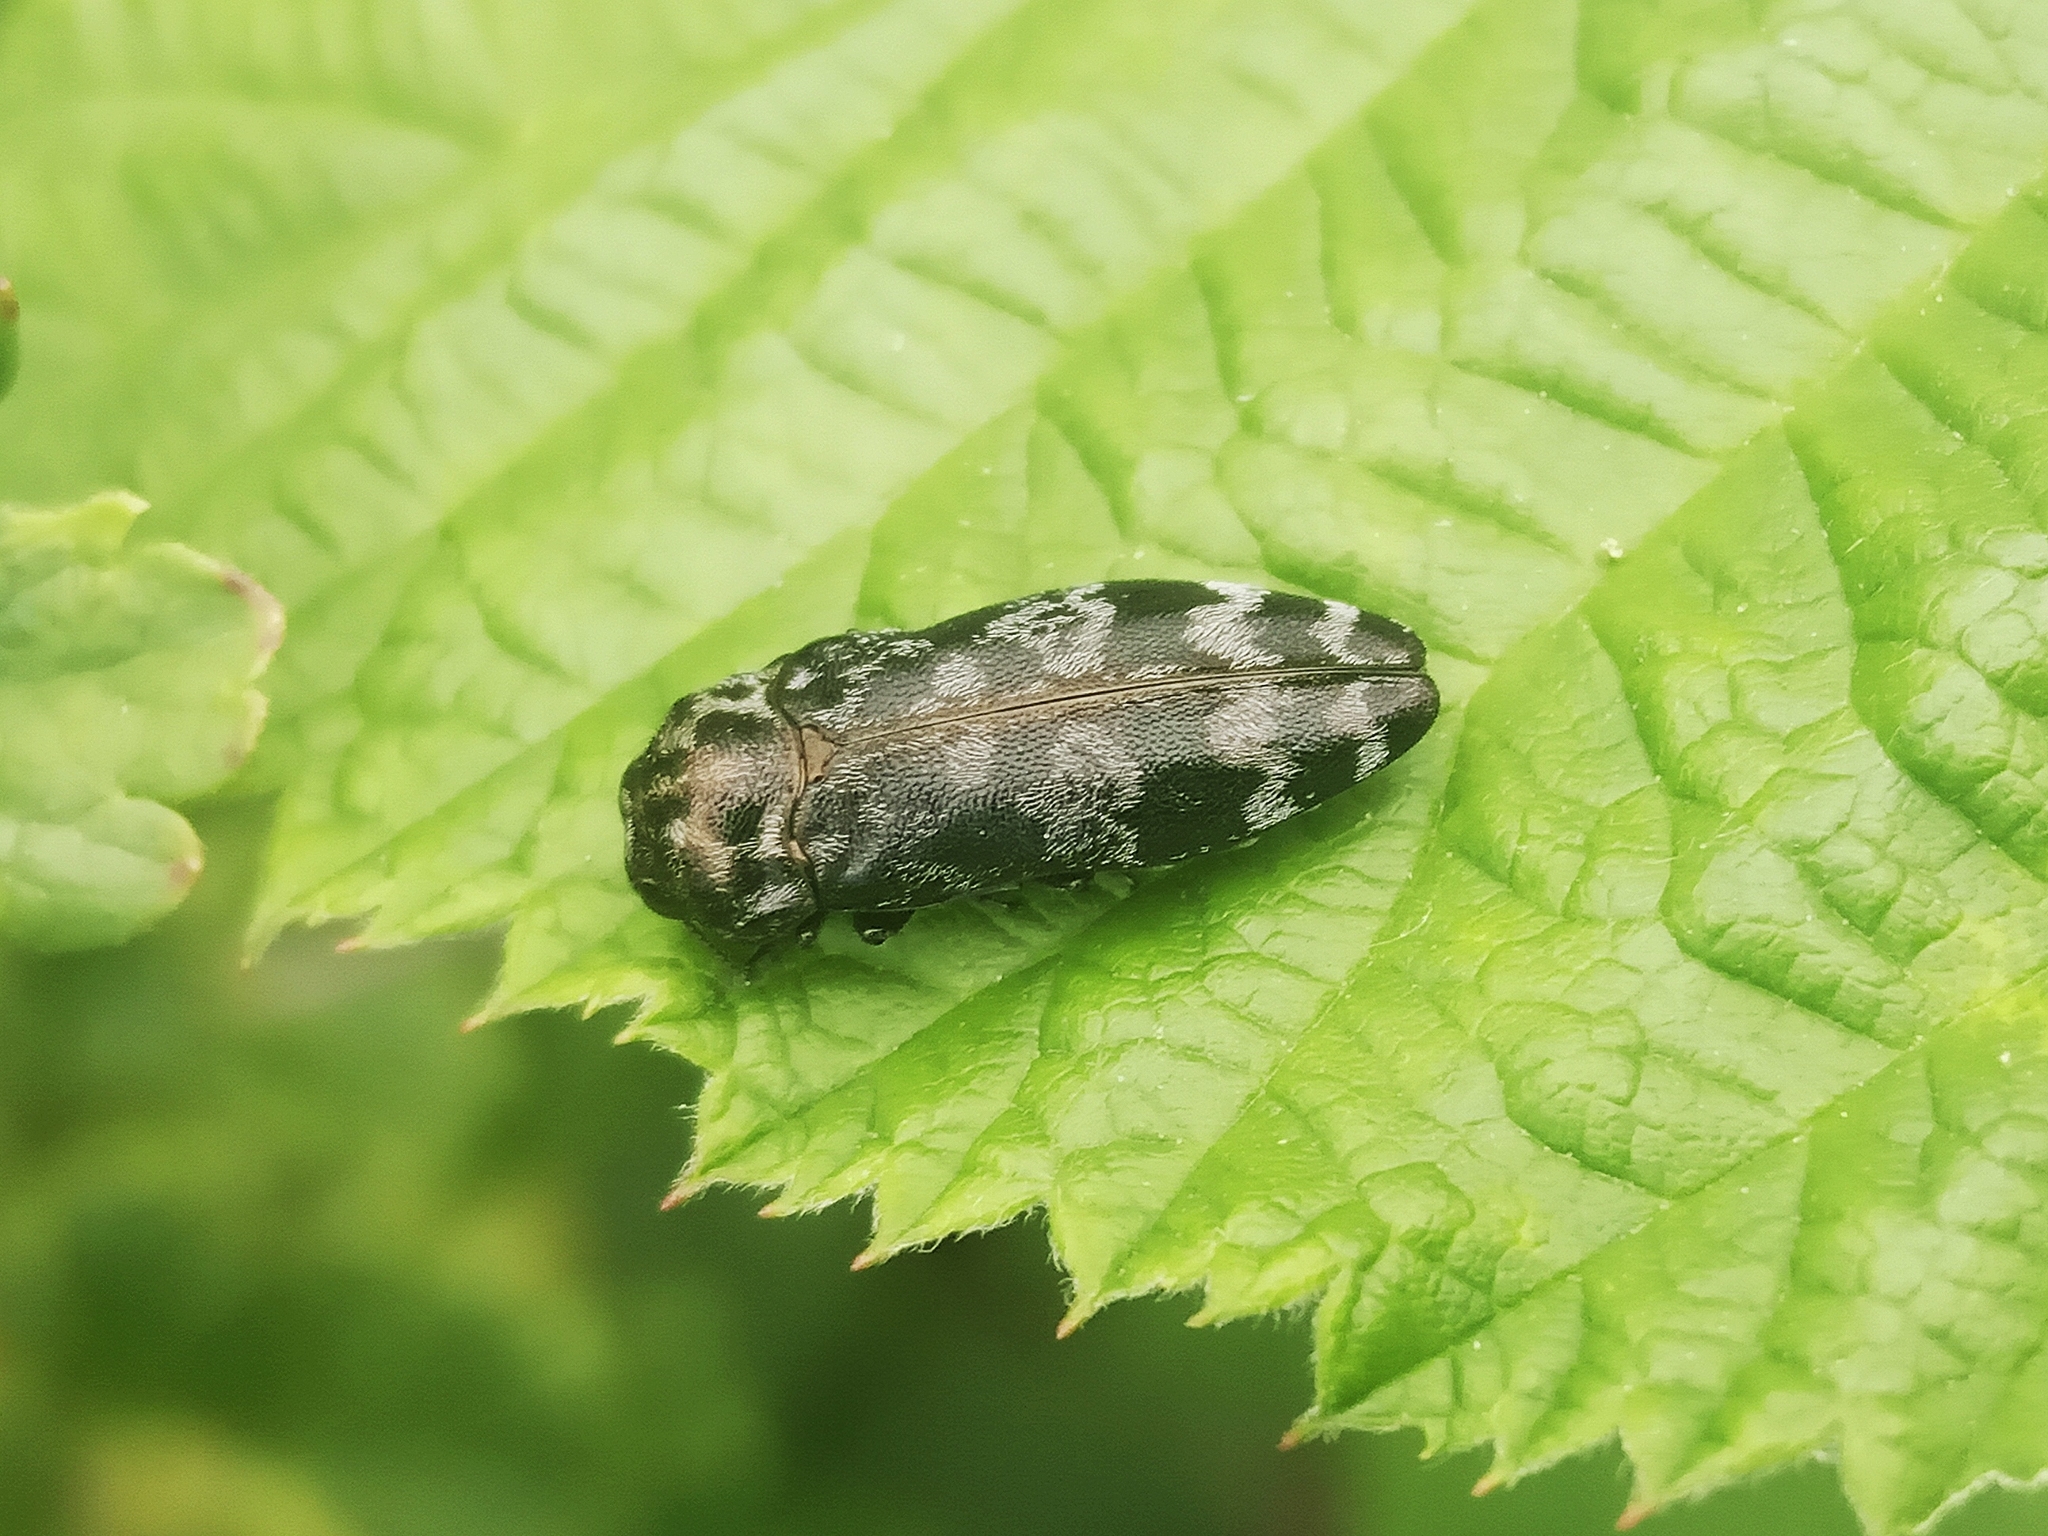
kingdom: Animalia
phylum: Arthropoda
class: Insecta
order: Coleoptera
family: Buprestidae
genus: Coraebus
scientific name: Coraebus rubi
